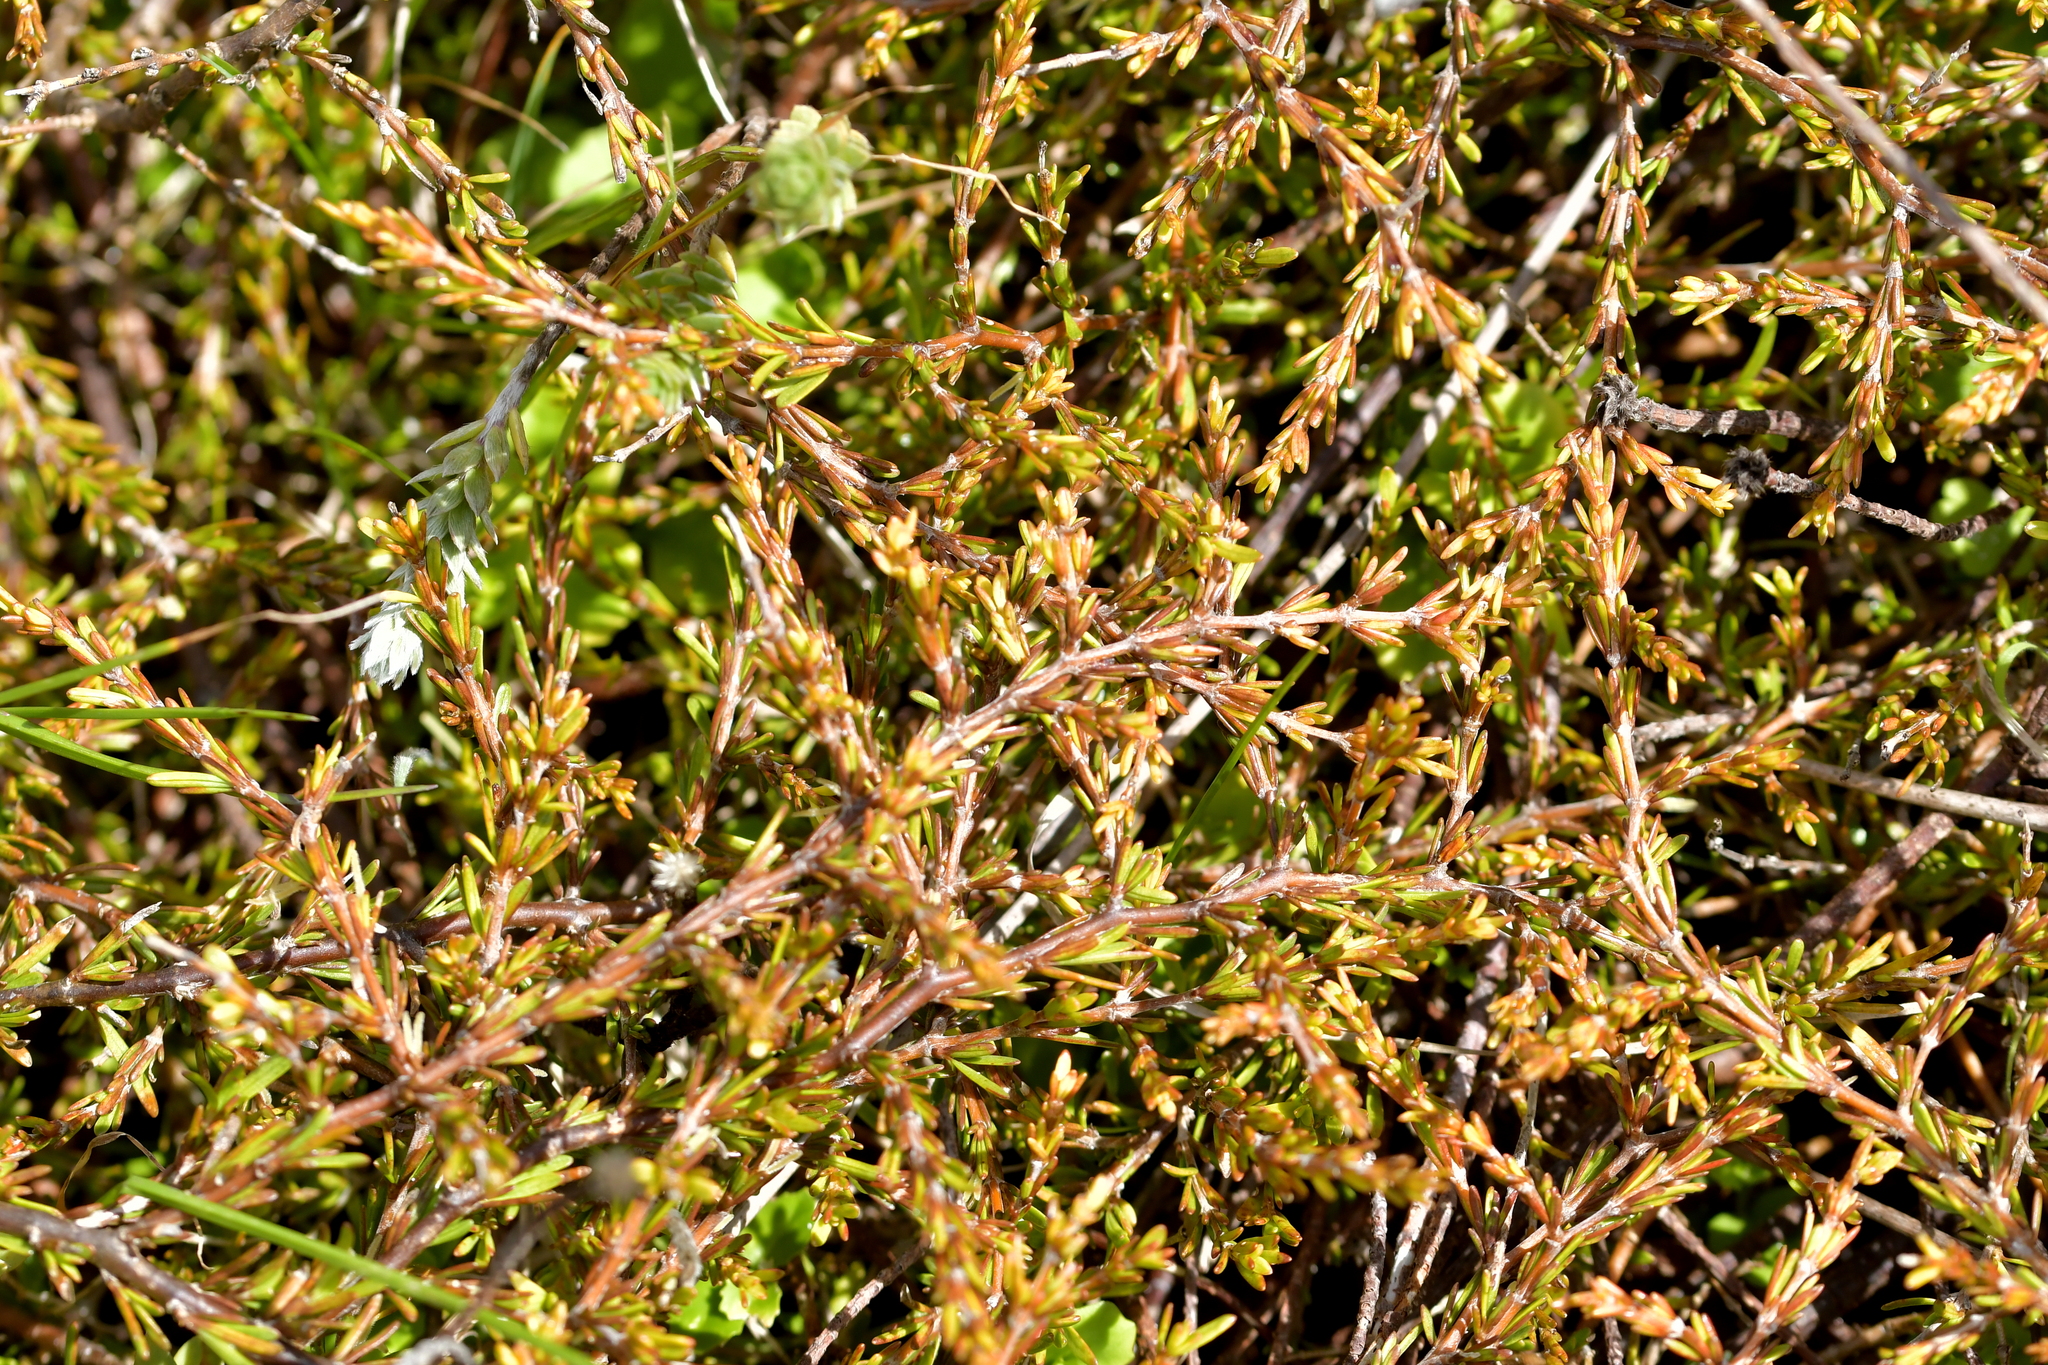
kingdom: Plantae
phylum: Tracheophyta
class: Magnoliopsida
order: Gentianales
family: Rubiaceae
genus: Coprosma
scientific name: Coprosma acerosa
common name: Sand coprosma
